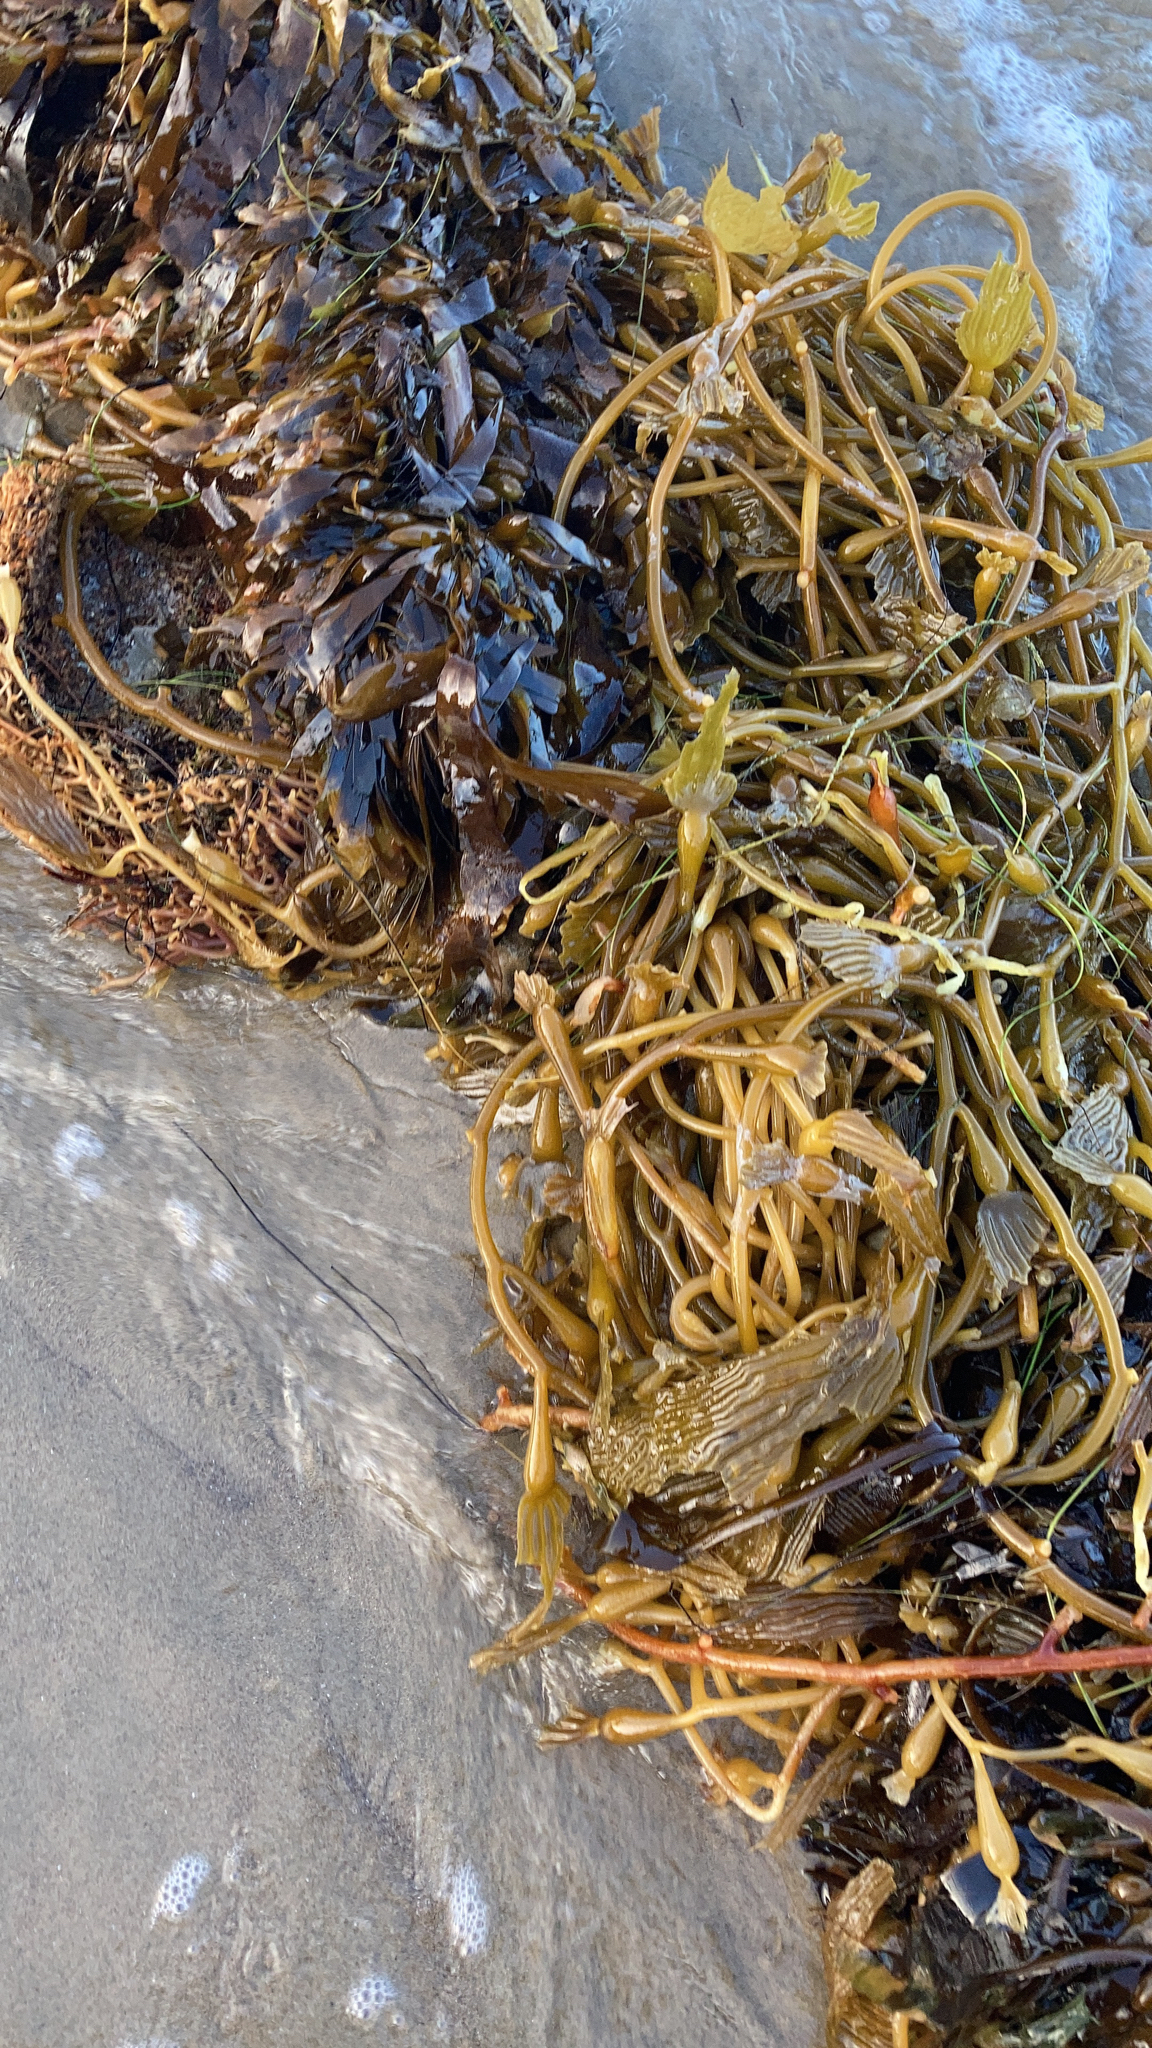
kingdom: Chromista
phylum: Ochrophyta
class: Phaeophyceae
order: Laminariales
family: Laminariaceae
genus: Macrocystis
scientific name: Macrocystis pyrifera
